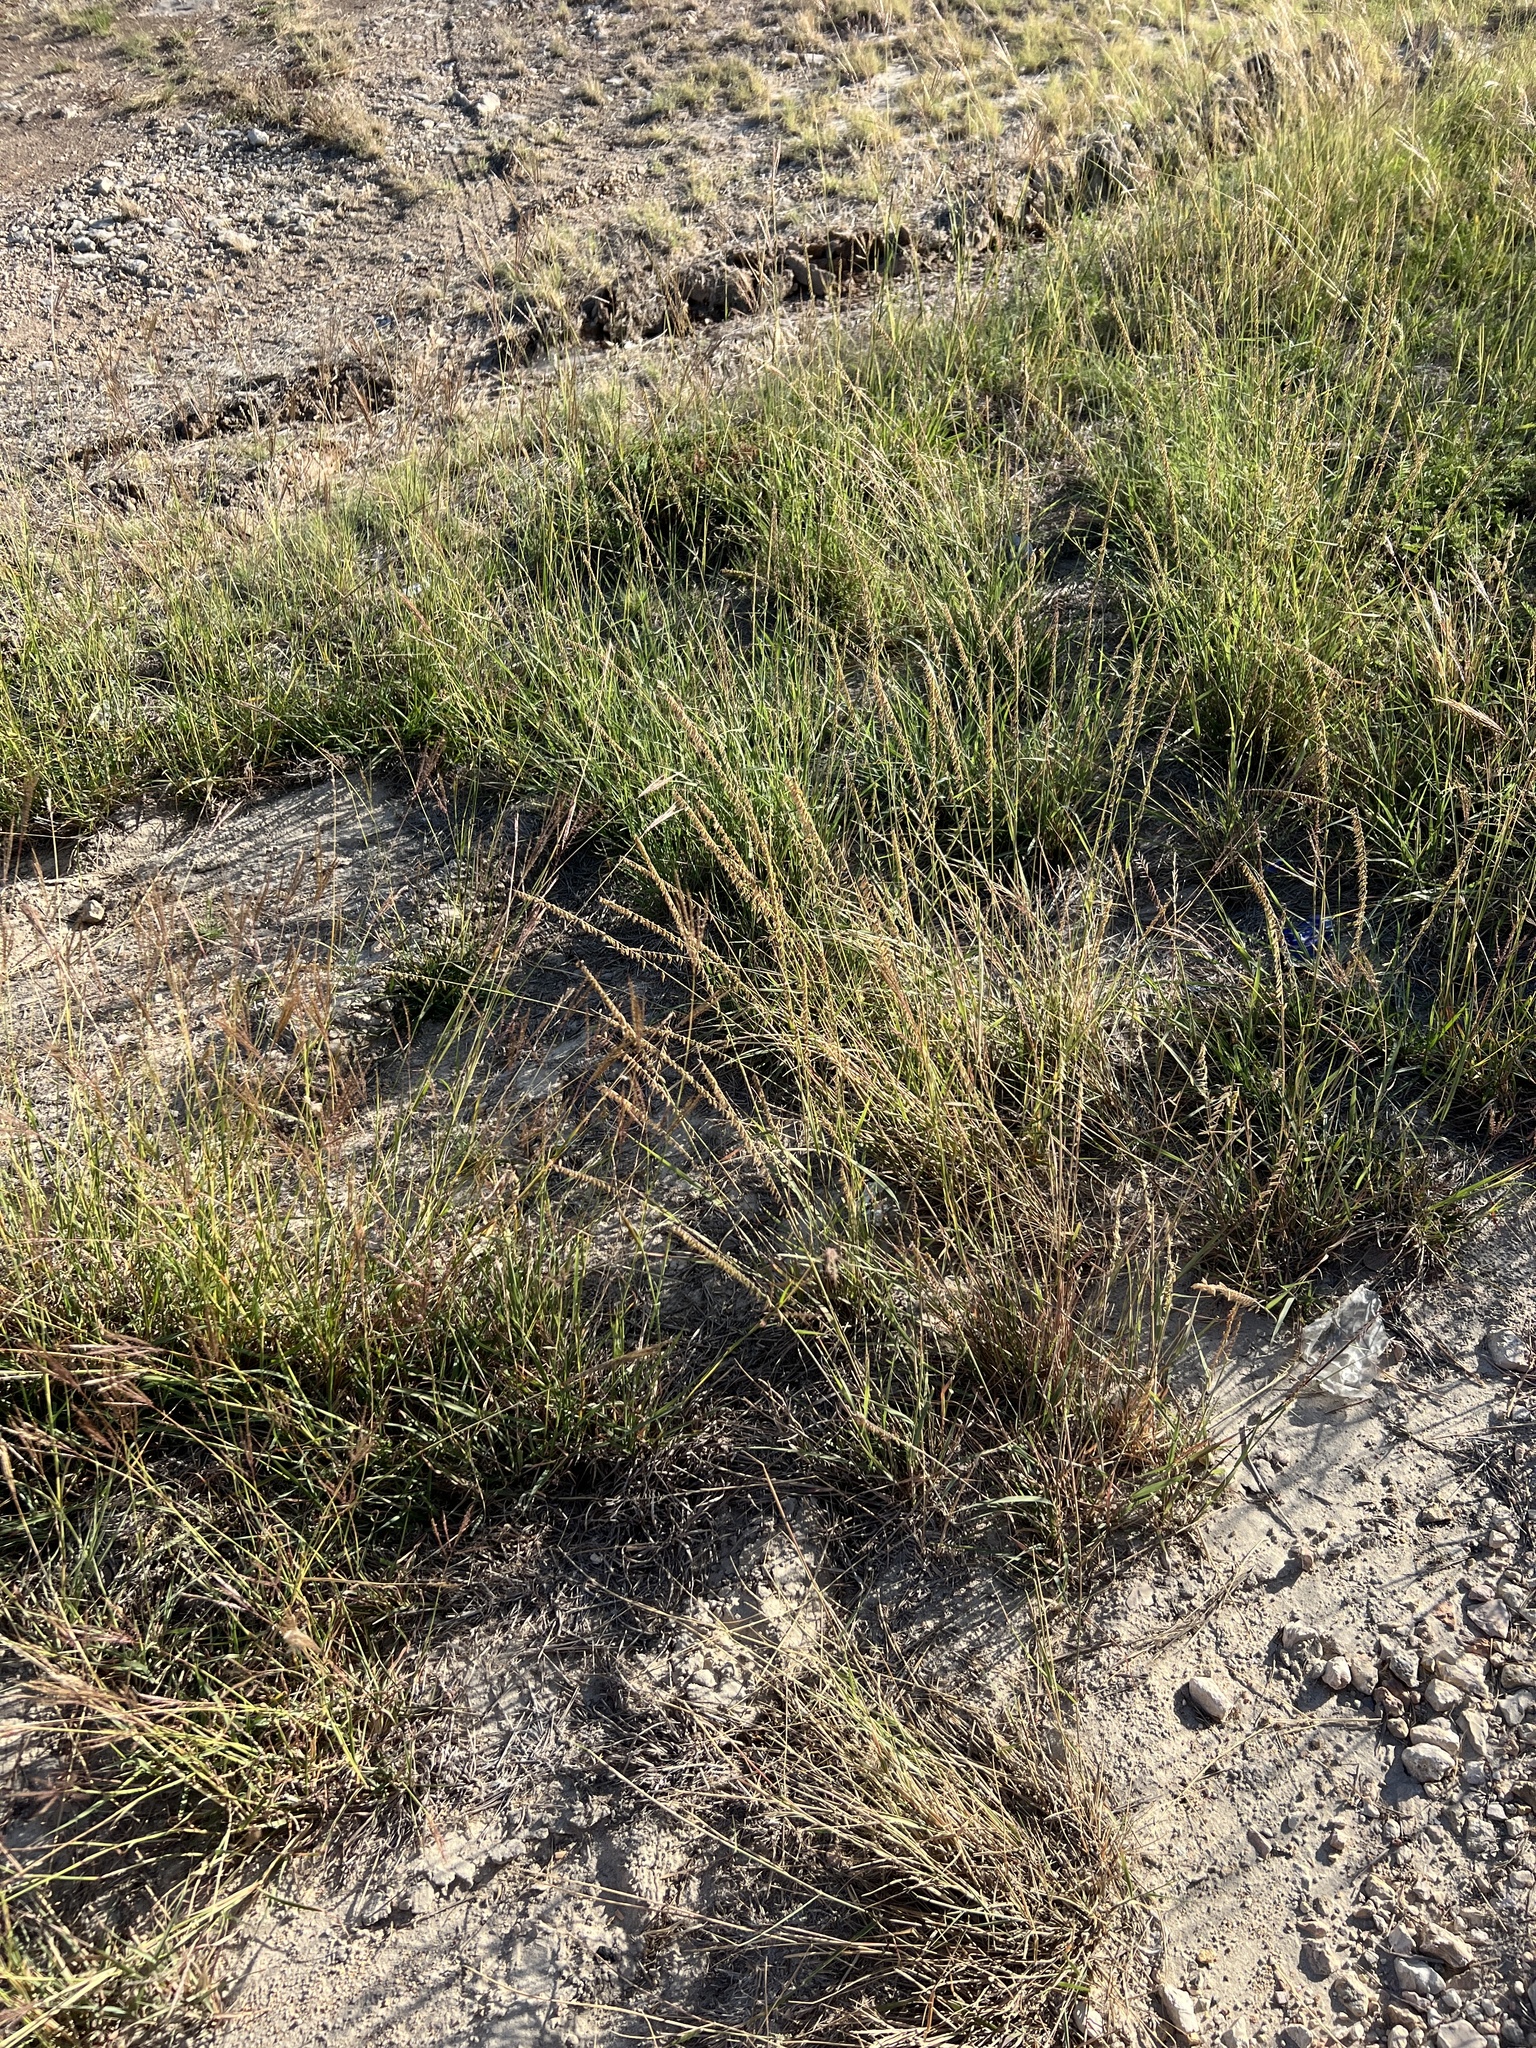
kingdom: Plantae
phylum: Tracheophyta
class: Liliopsida
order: Poales
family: Poaceae
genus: Bouteloua
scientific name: Bouteloua curtipendula
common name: Side-oats grama
